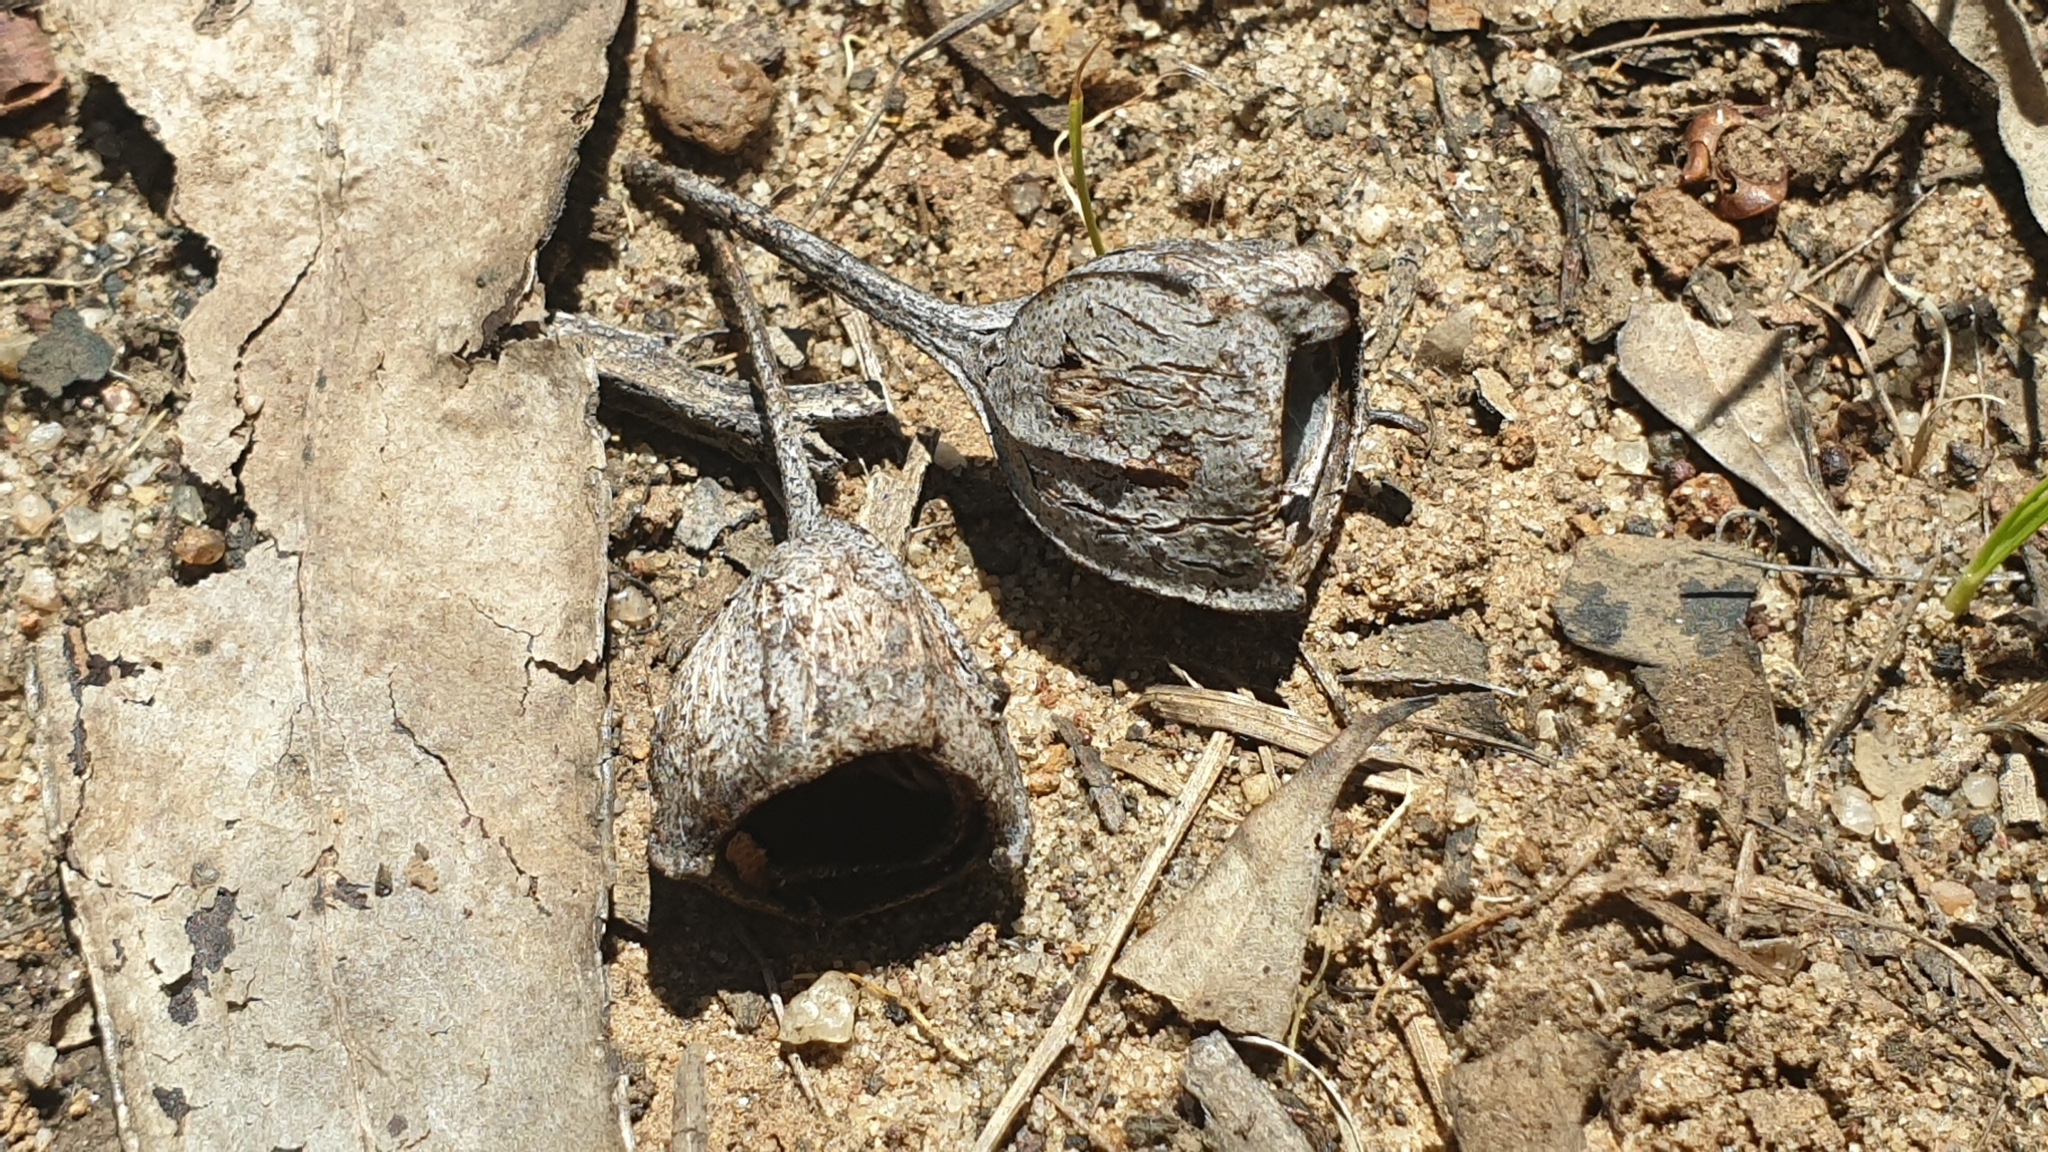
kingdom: Plantae
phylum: Tracheophyta
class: Magnoliopsida
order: Myrtales
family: Myrtaceae
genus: Angophora
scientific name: Angophora woodsiana
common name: Smudgy apple
